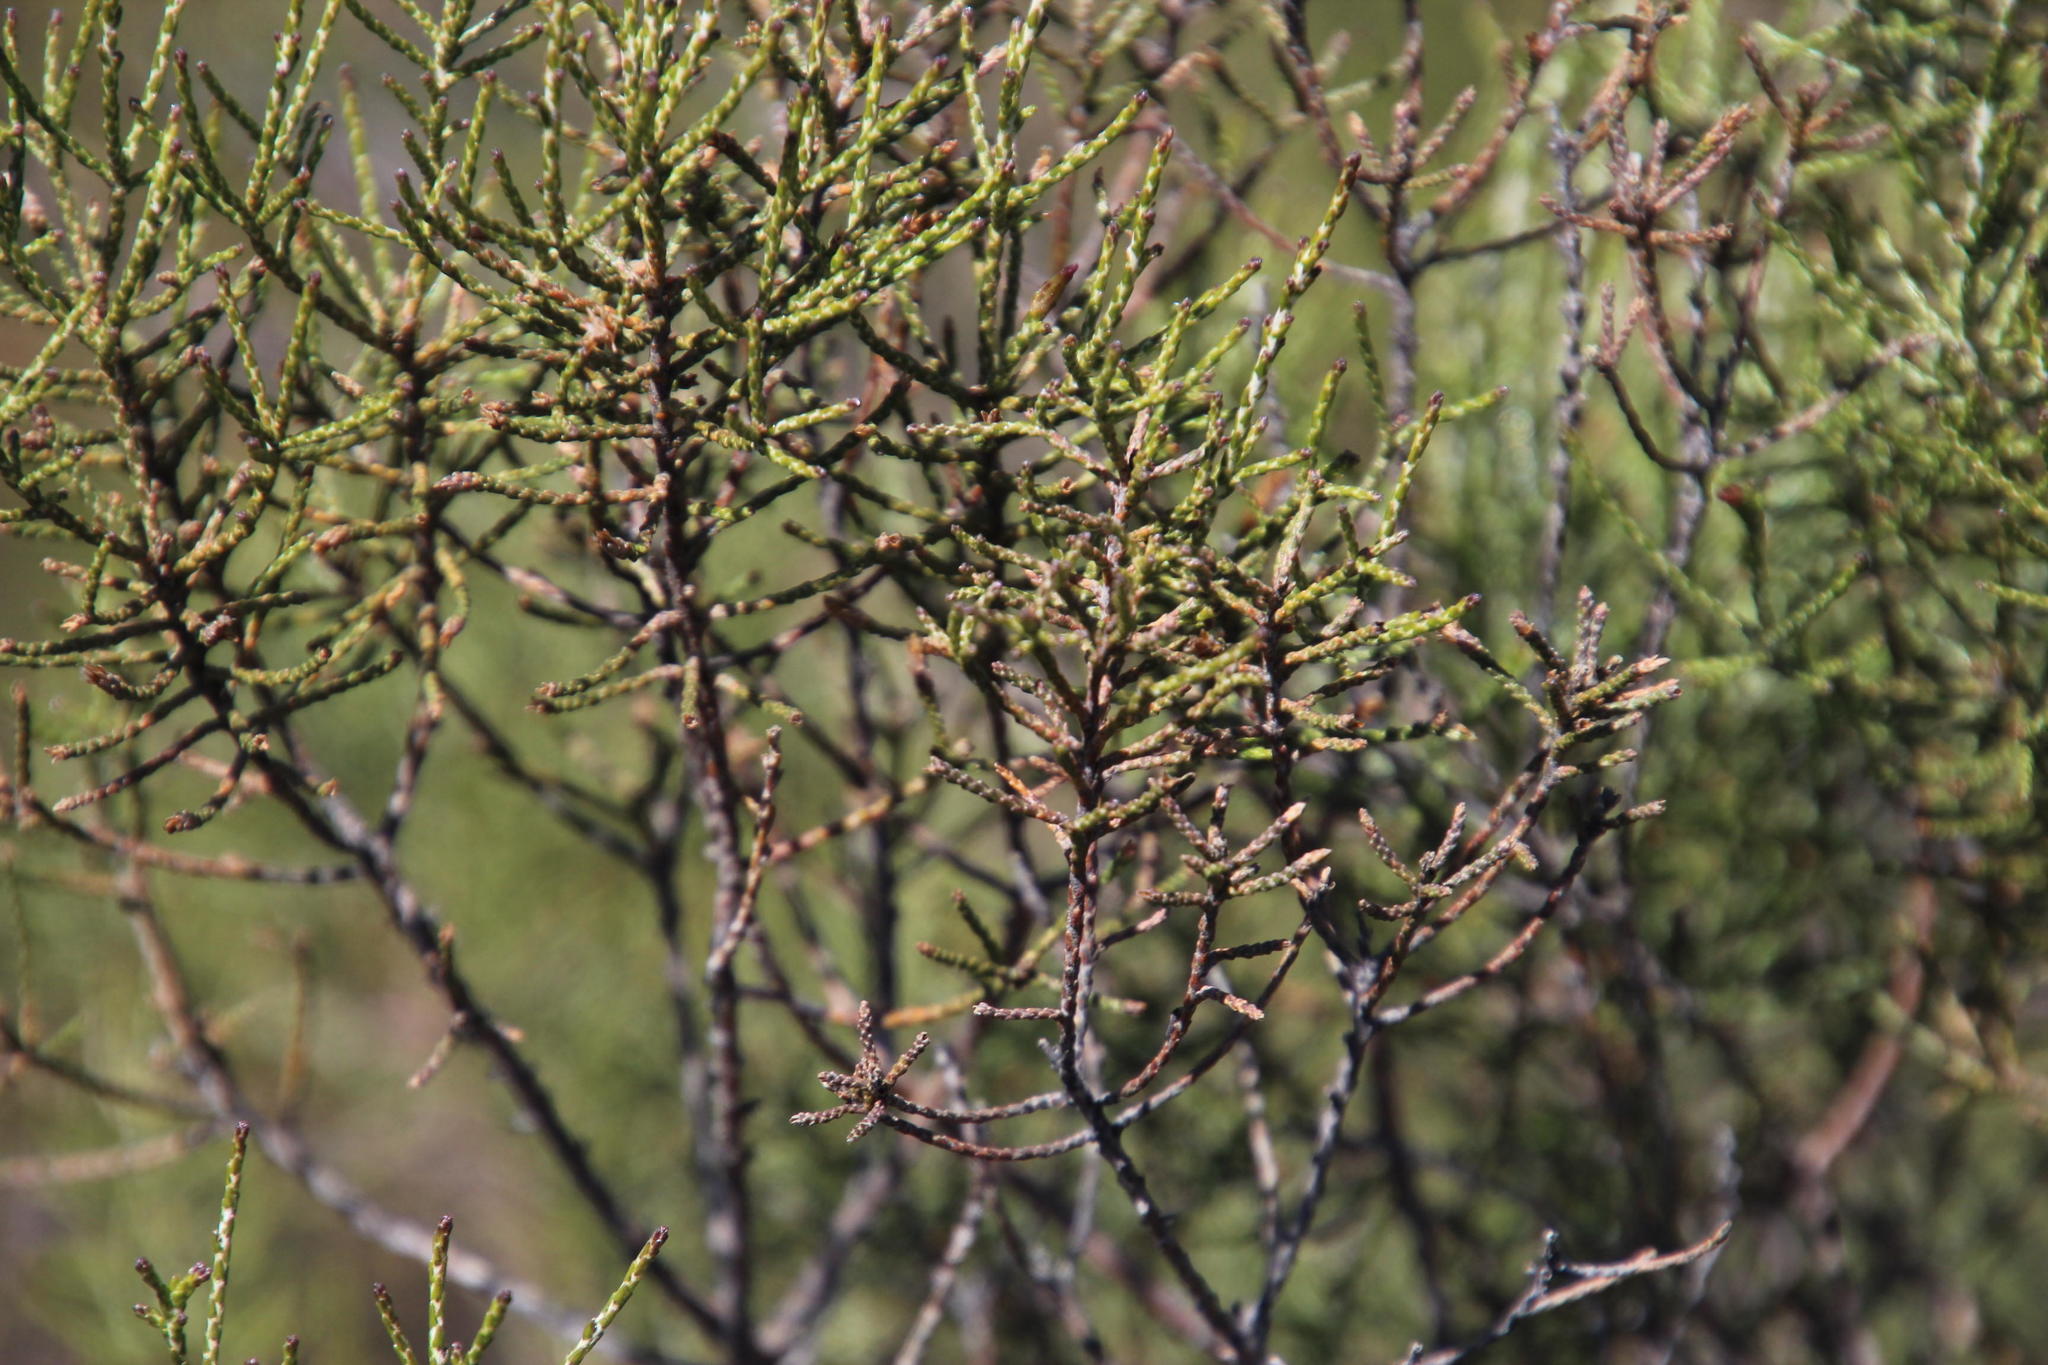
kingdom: Plantae
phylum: Tracheophyta
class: Magnoliopsida
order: Asterales
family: Asteraceae
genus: Dicerothamnus
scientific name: Dicerothamnus rhinocerotis
